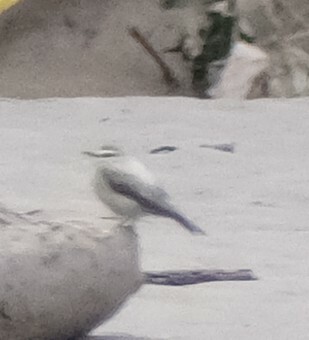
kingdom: Animalia
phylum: Chordata
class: Aves
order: Passeriformes
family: Tyrannidae
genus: Ochthornis
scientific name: Ochthornis littoralis
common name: Drab water tyrant
